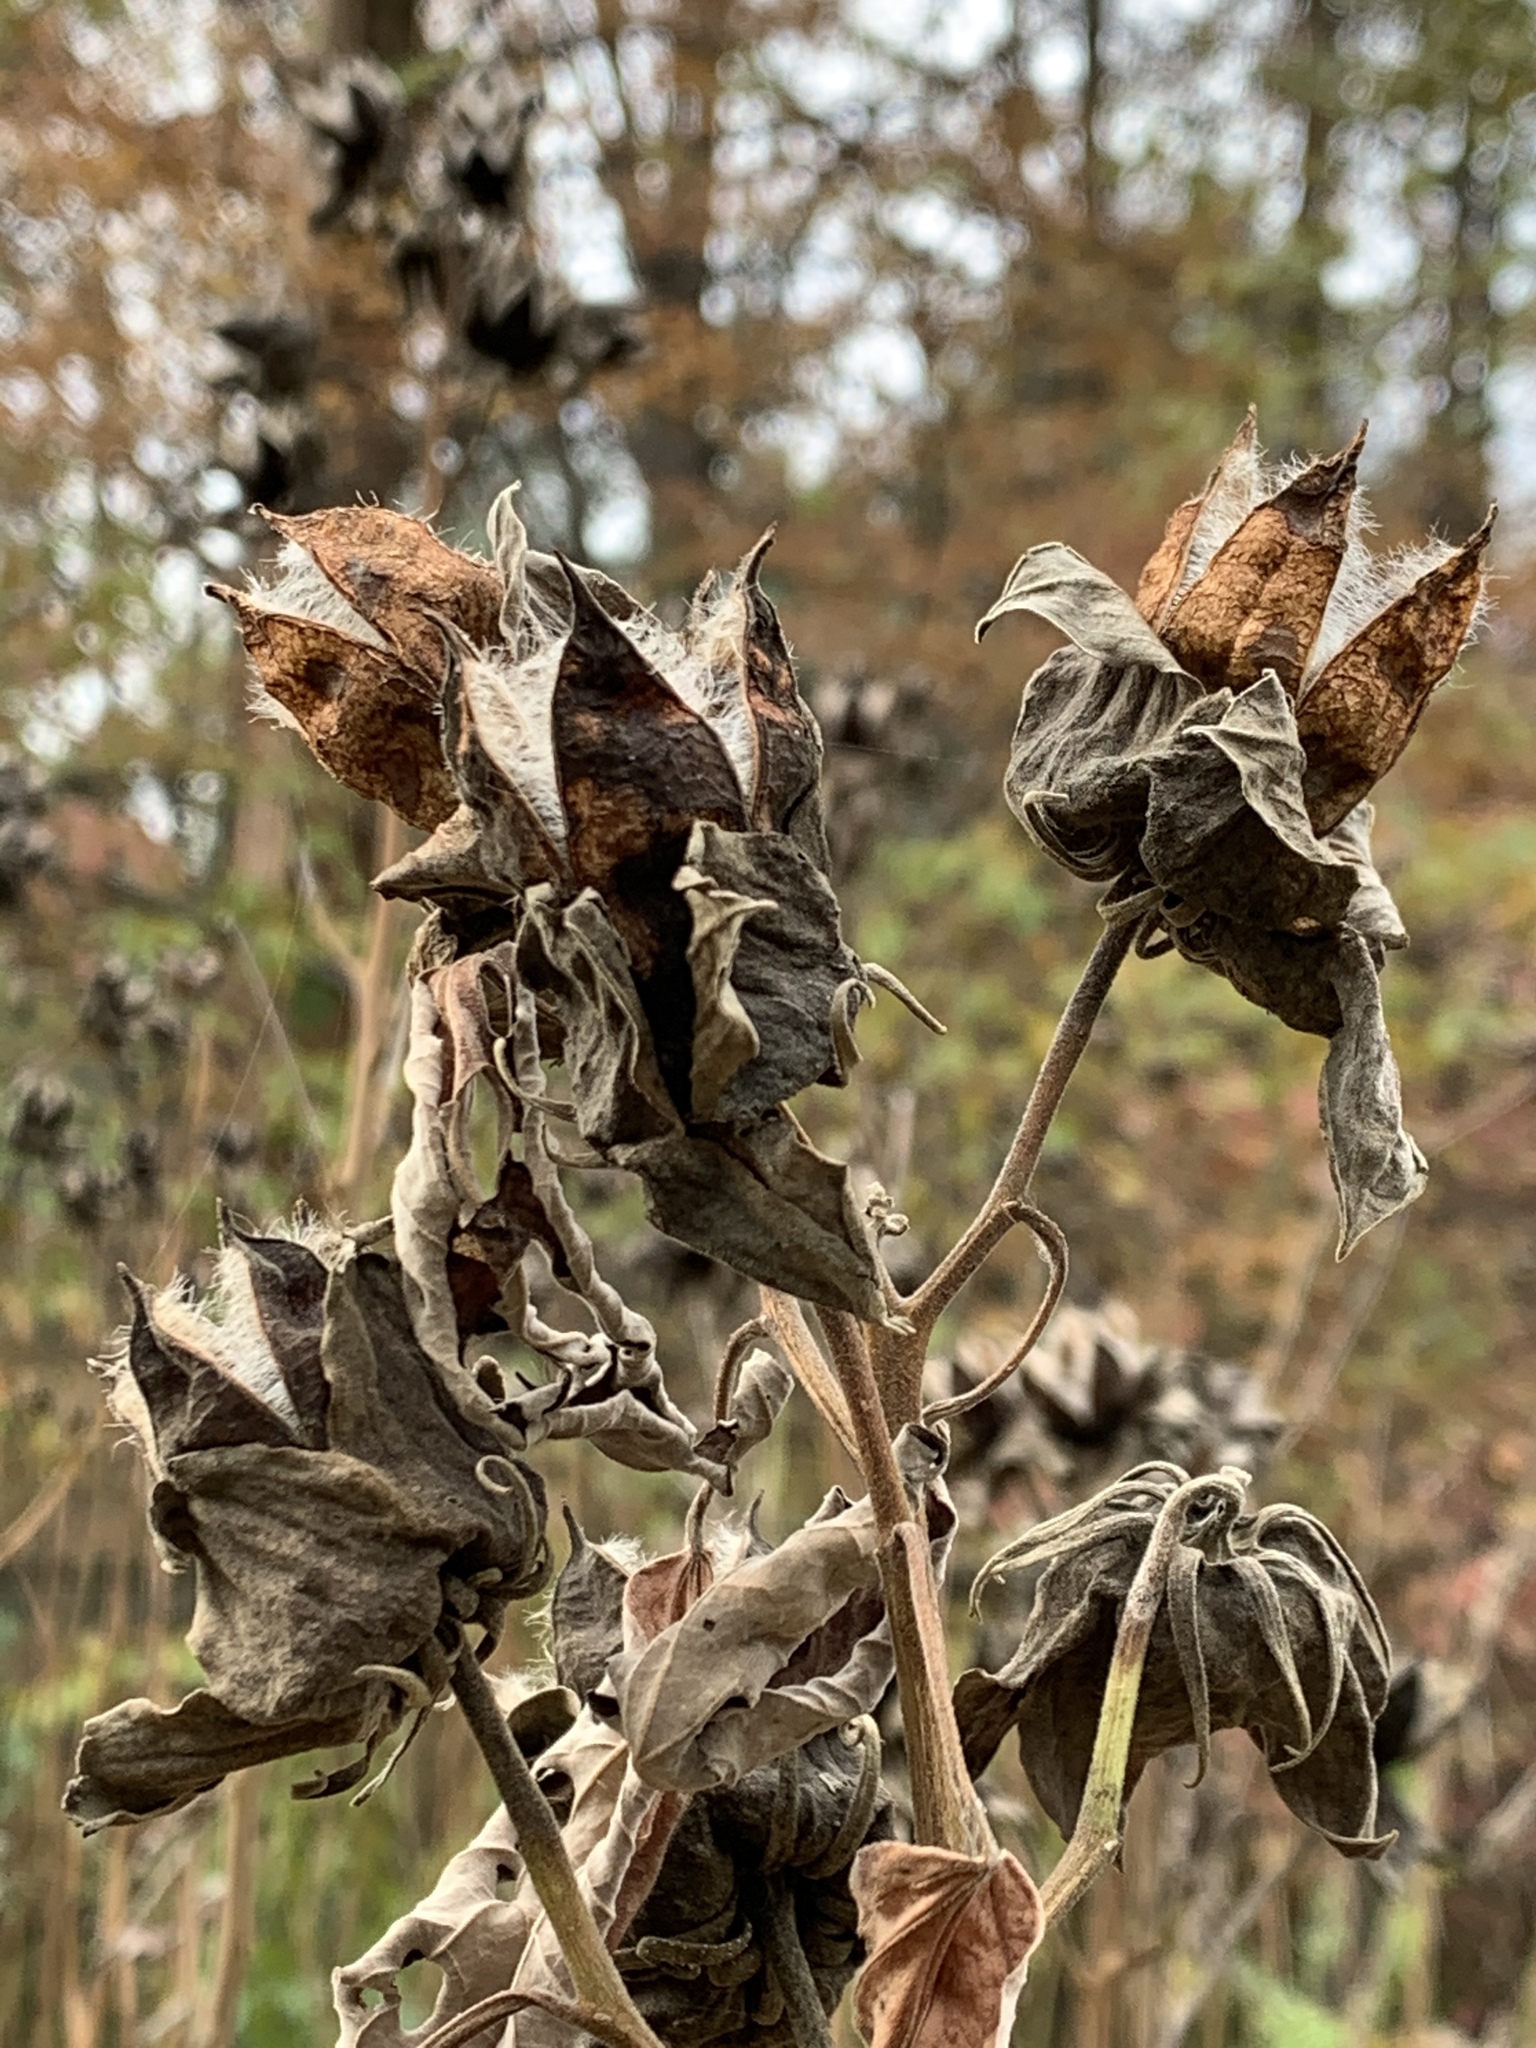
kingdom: Plantae
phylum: Tracheophyta
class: Magnoliopsida
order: Malvales
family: Malvaceae
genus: Hibiscus
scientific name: Hibiscus moscheutos
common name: Common rose-mallow
